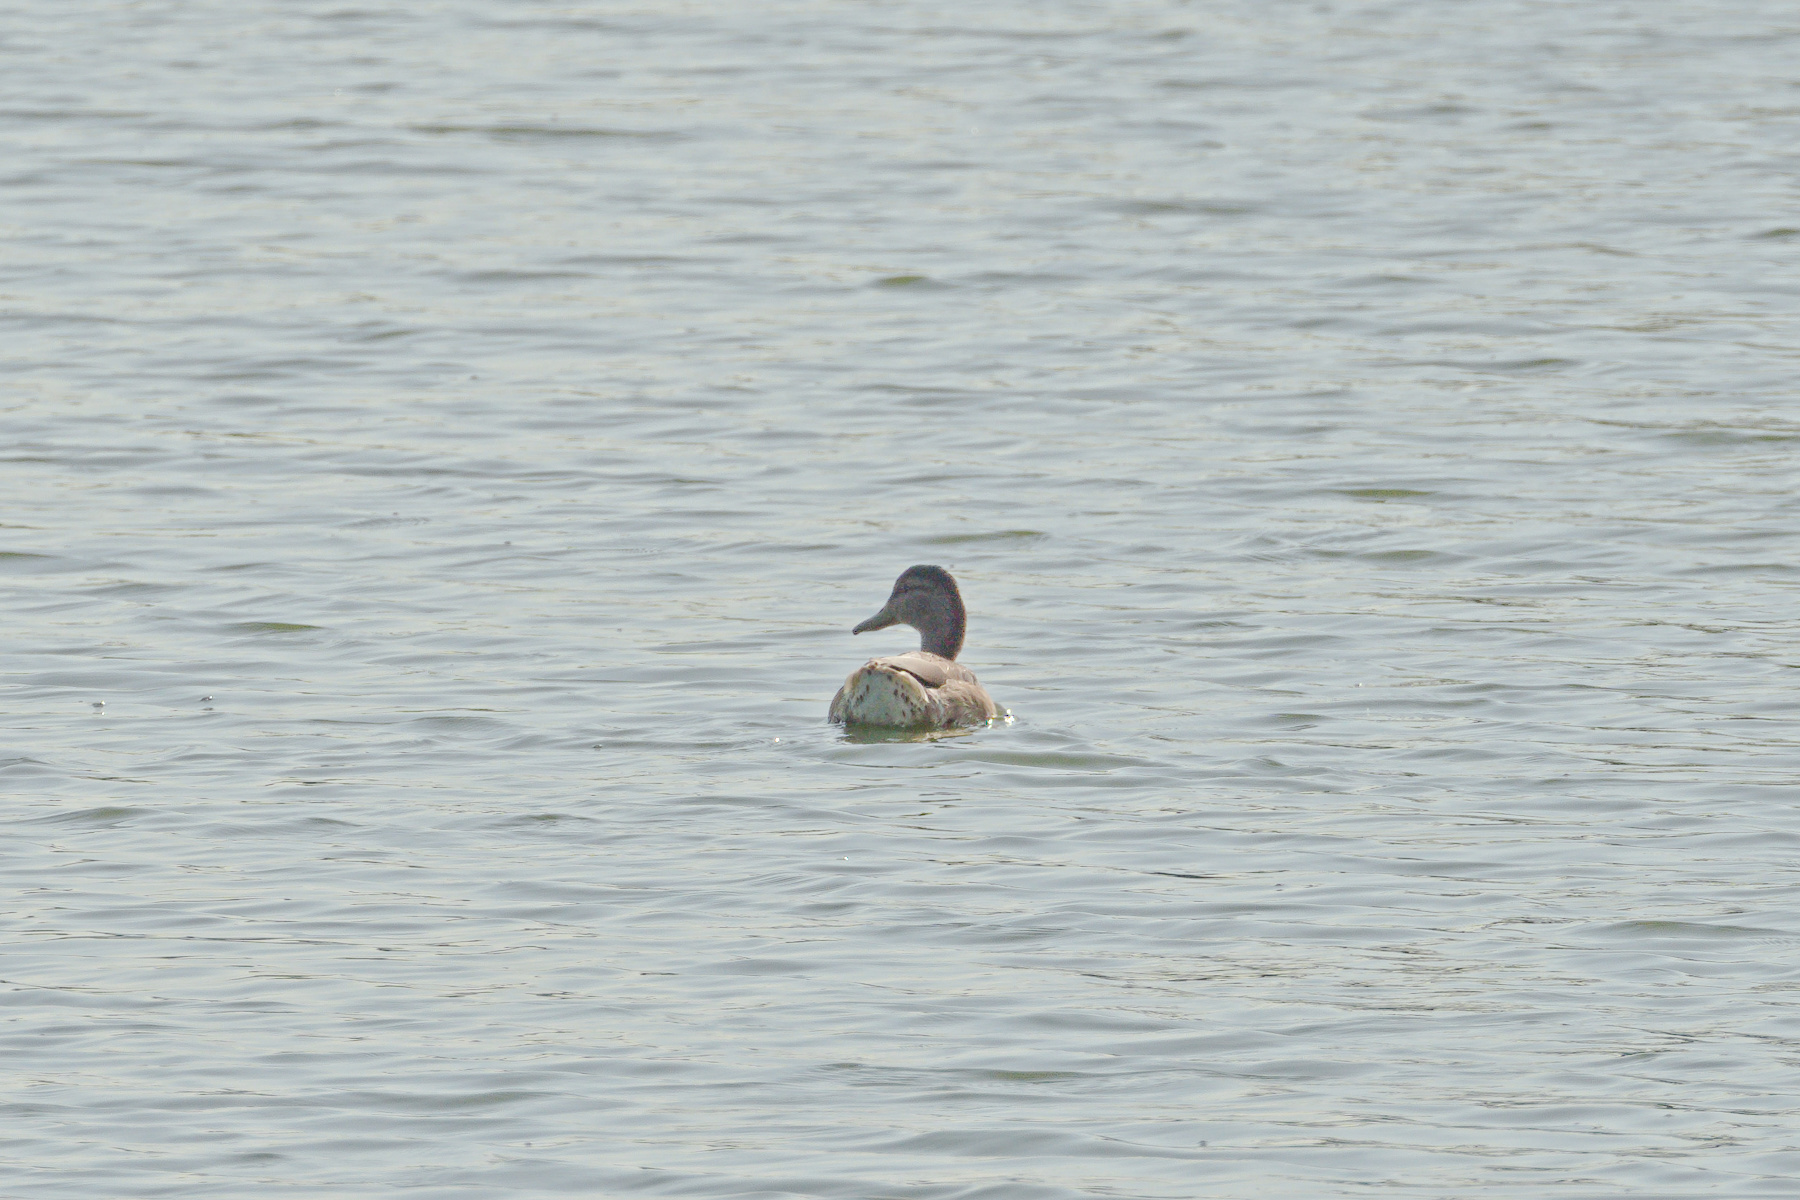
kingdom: Animalia
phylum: Chordata
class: Aves
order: Anseriformes
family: Anatidae
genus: Anas
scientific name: Anas platyrhynchos
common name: Mallard
